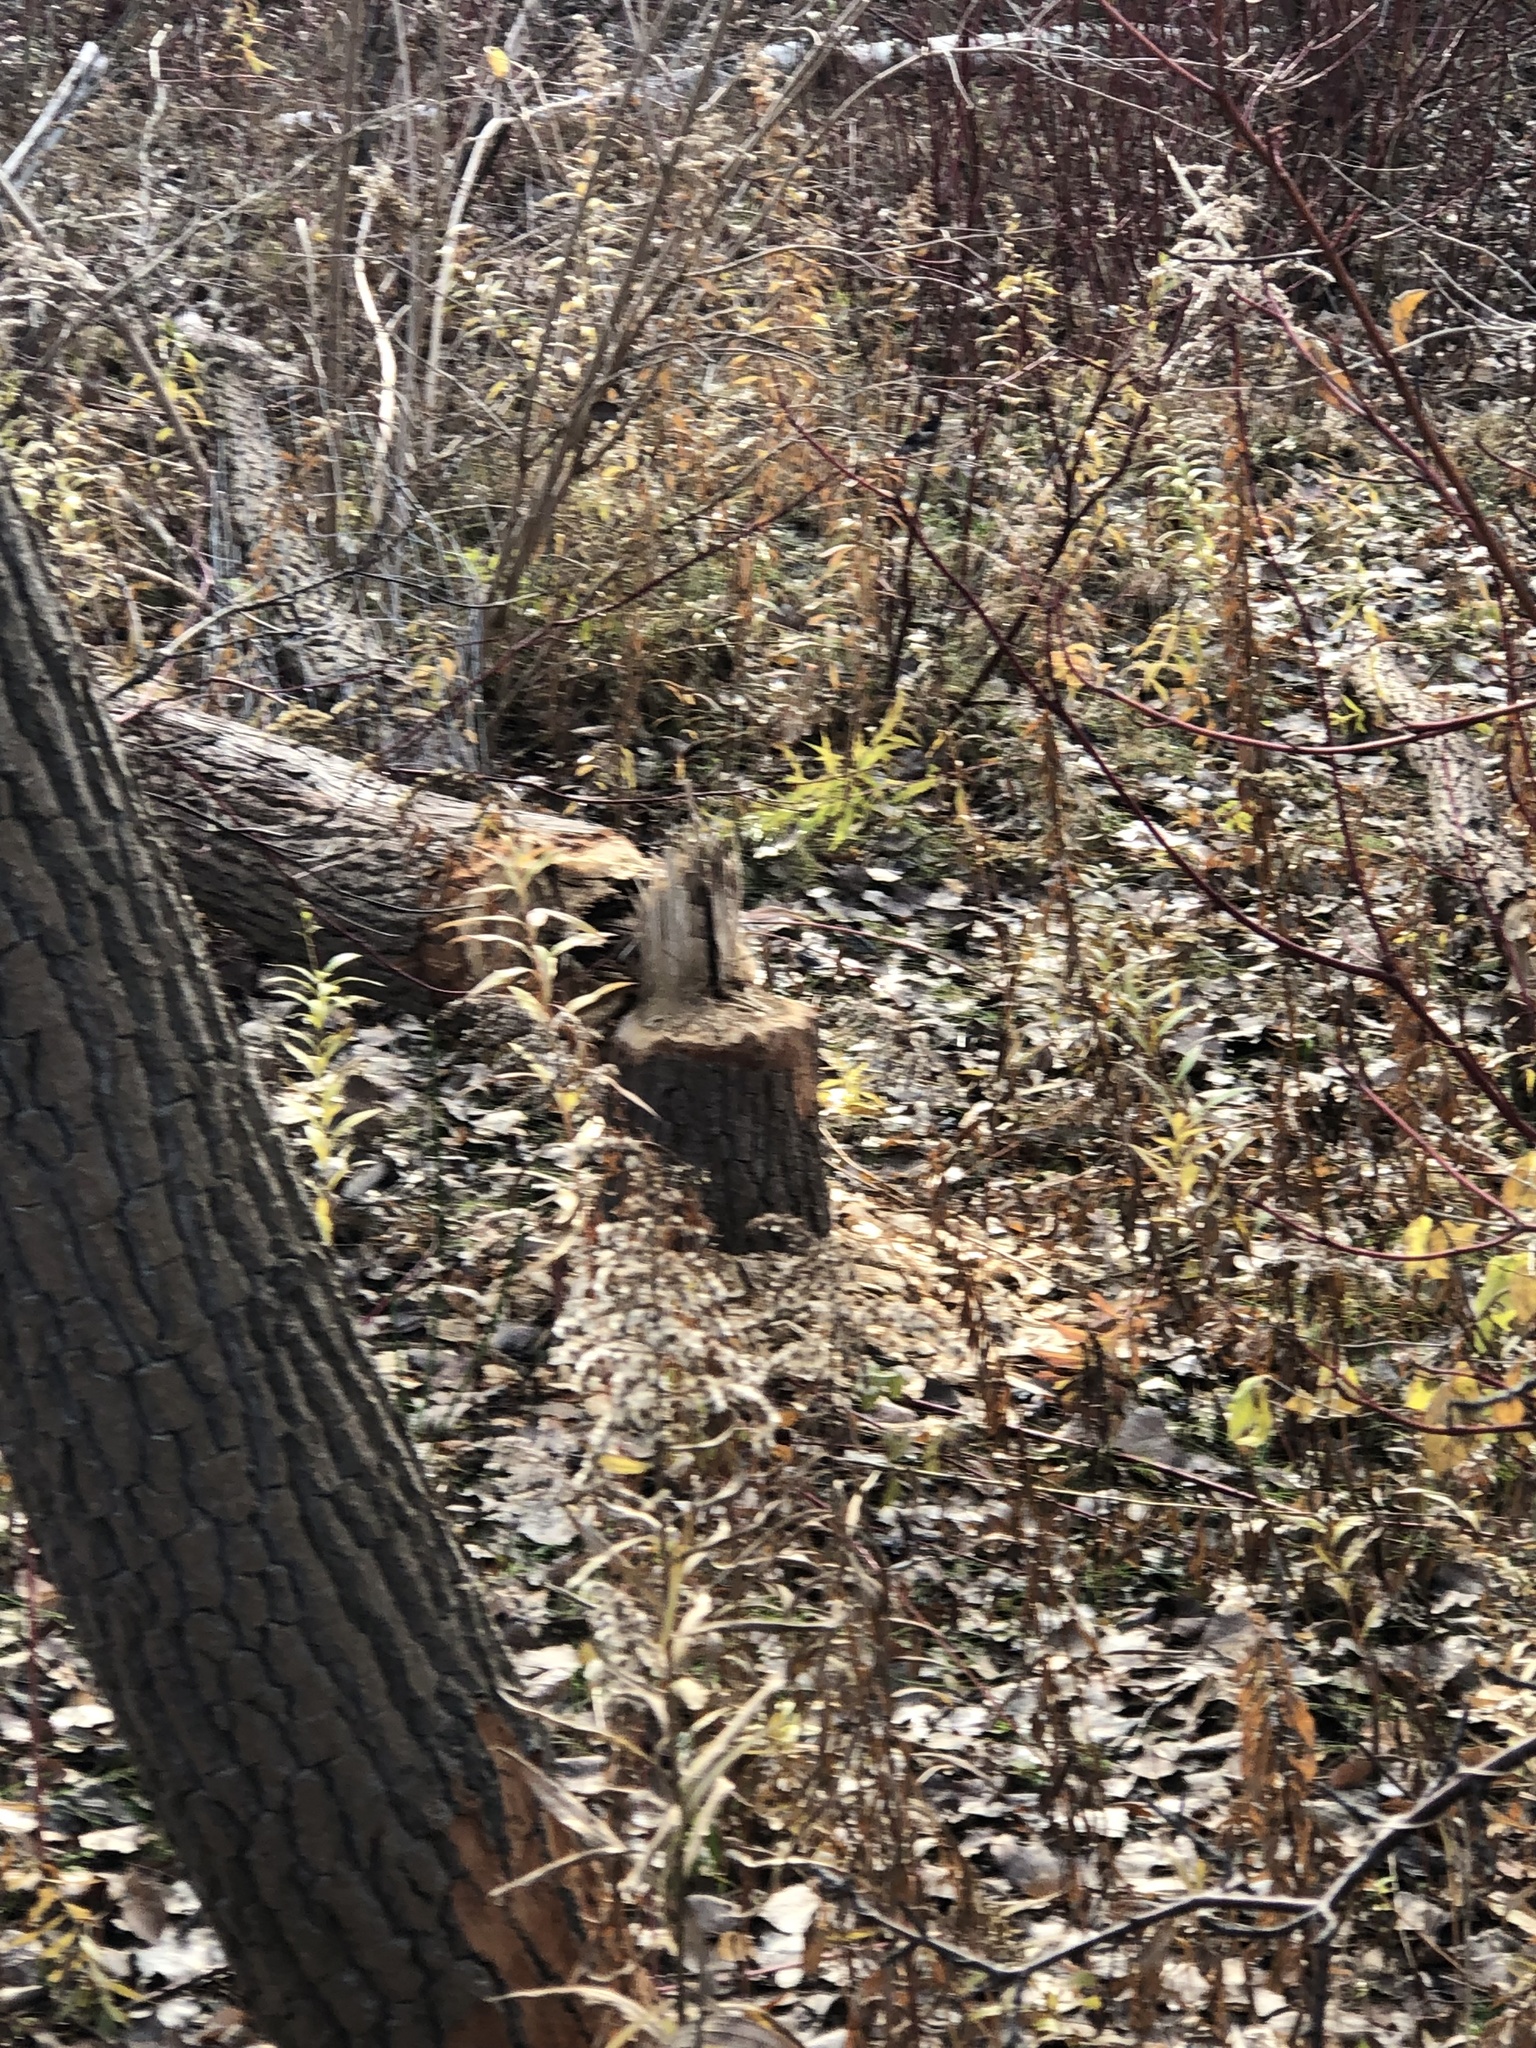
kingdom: Animalia
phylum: Chordata
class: Mammalia
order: Rodentia
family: Castoridae
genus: Castor
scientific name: Castor canadensis
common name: American beaver
